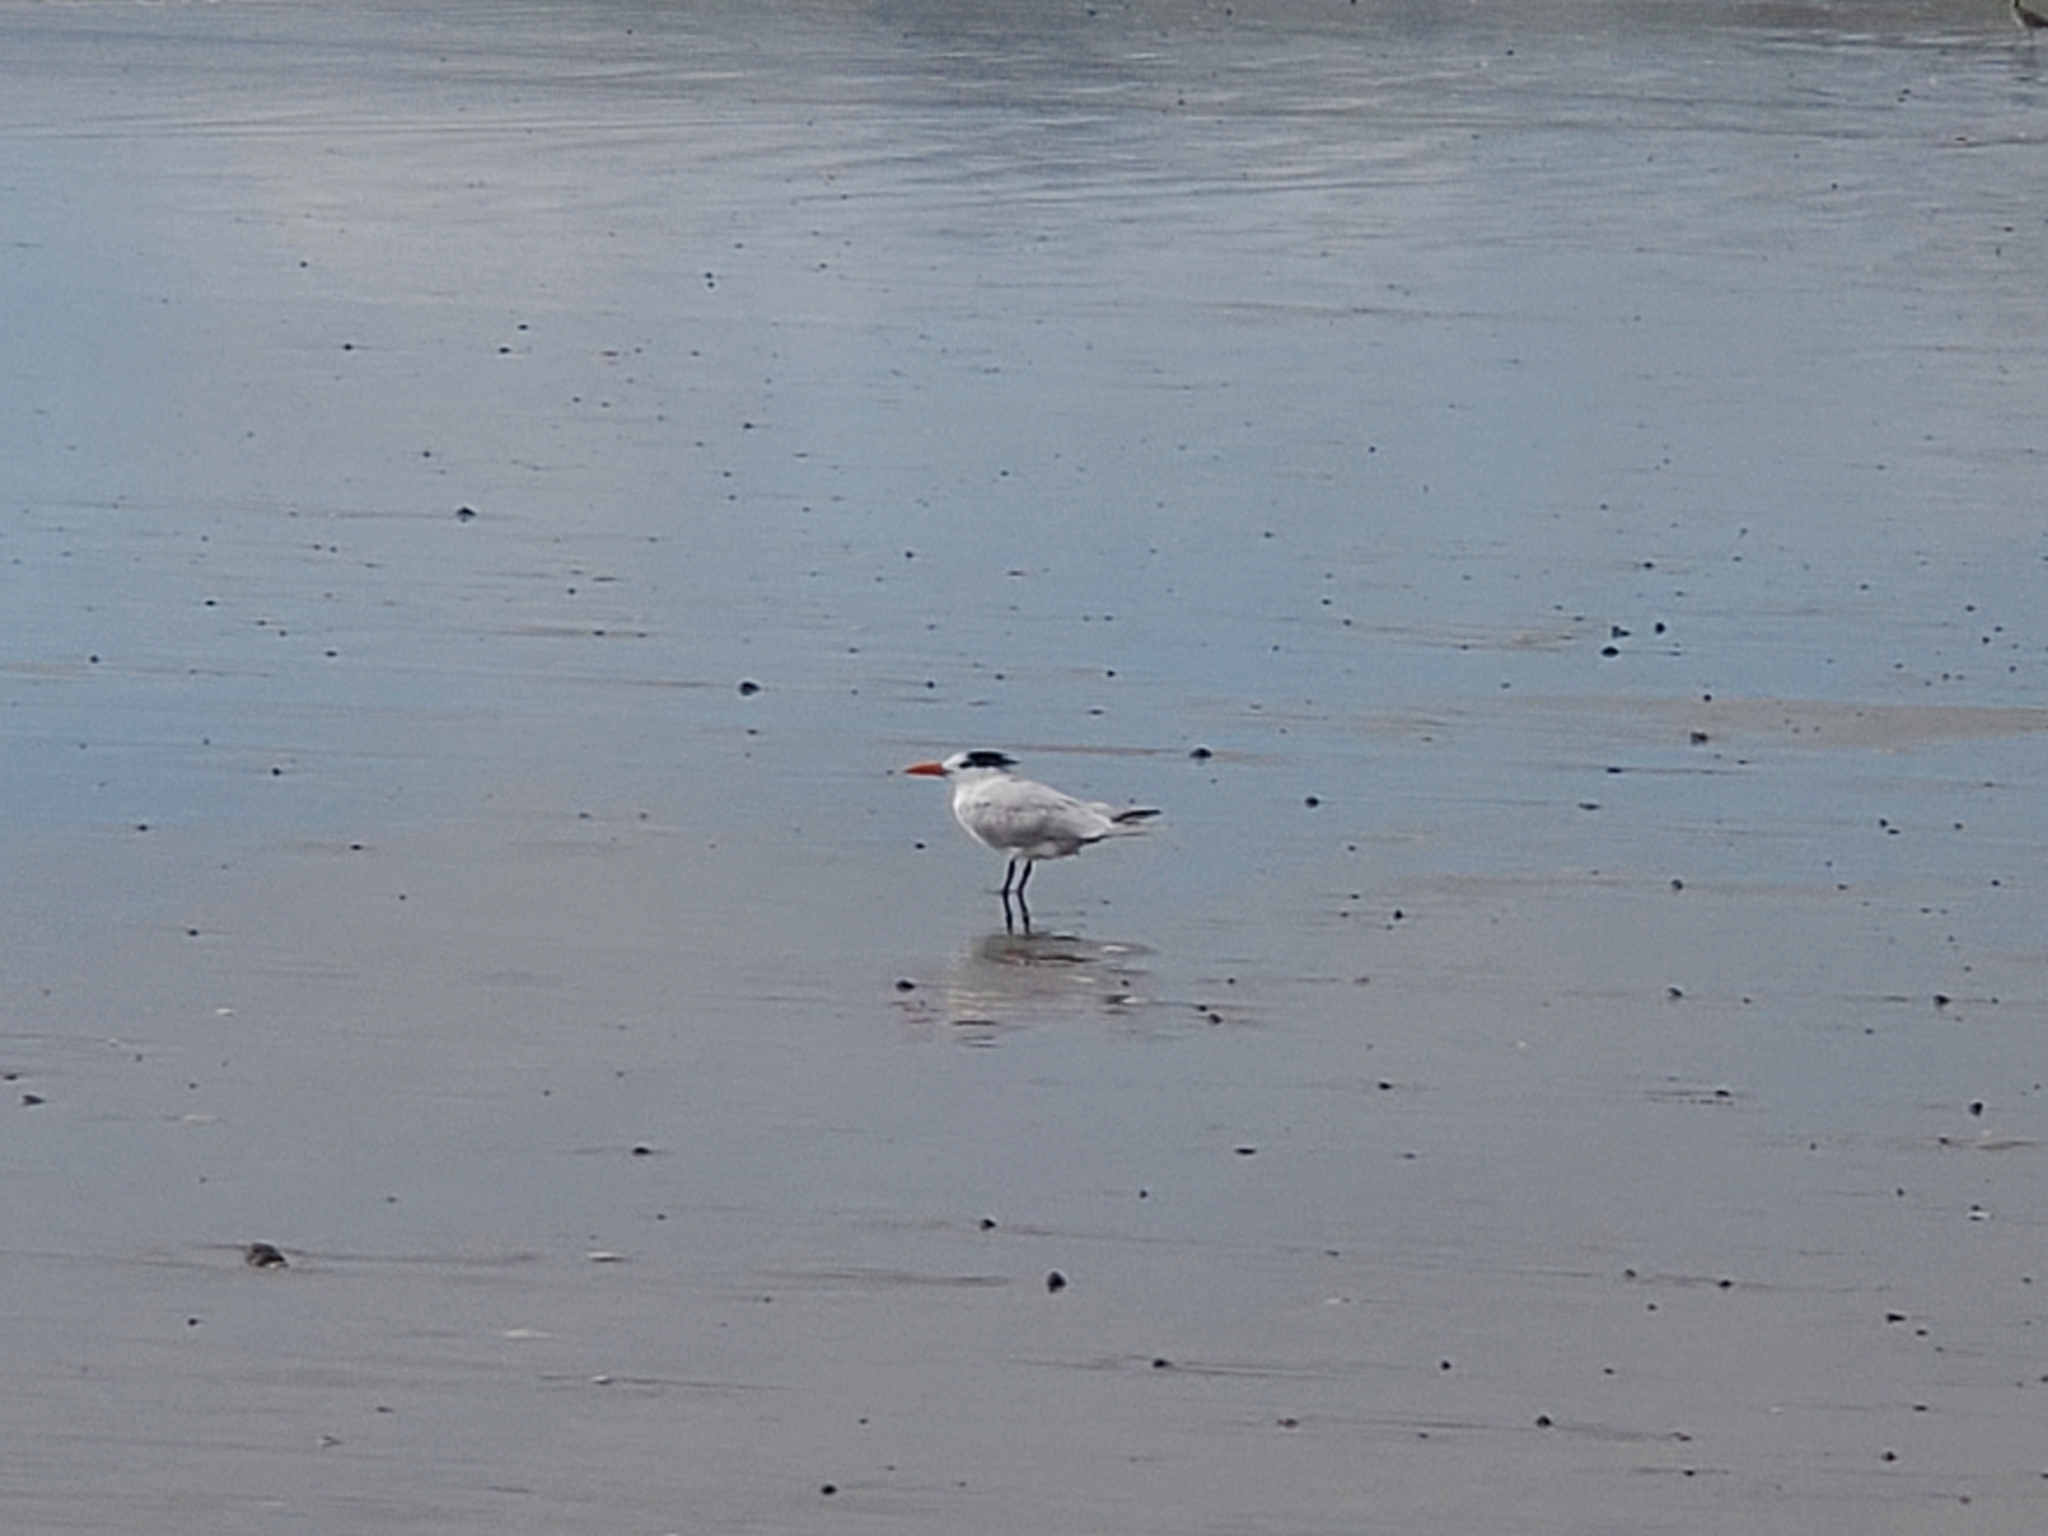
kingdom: Animalia
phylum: Chordata
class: Aves
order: Charadriiformes
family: Laridae
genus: Thalasseus
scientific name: Thalasseus maximus
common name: Royal tern
